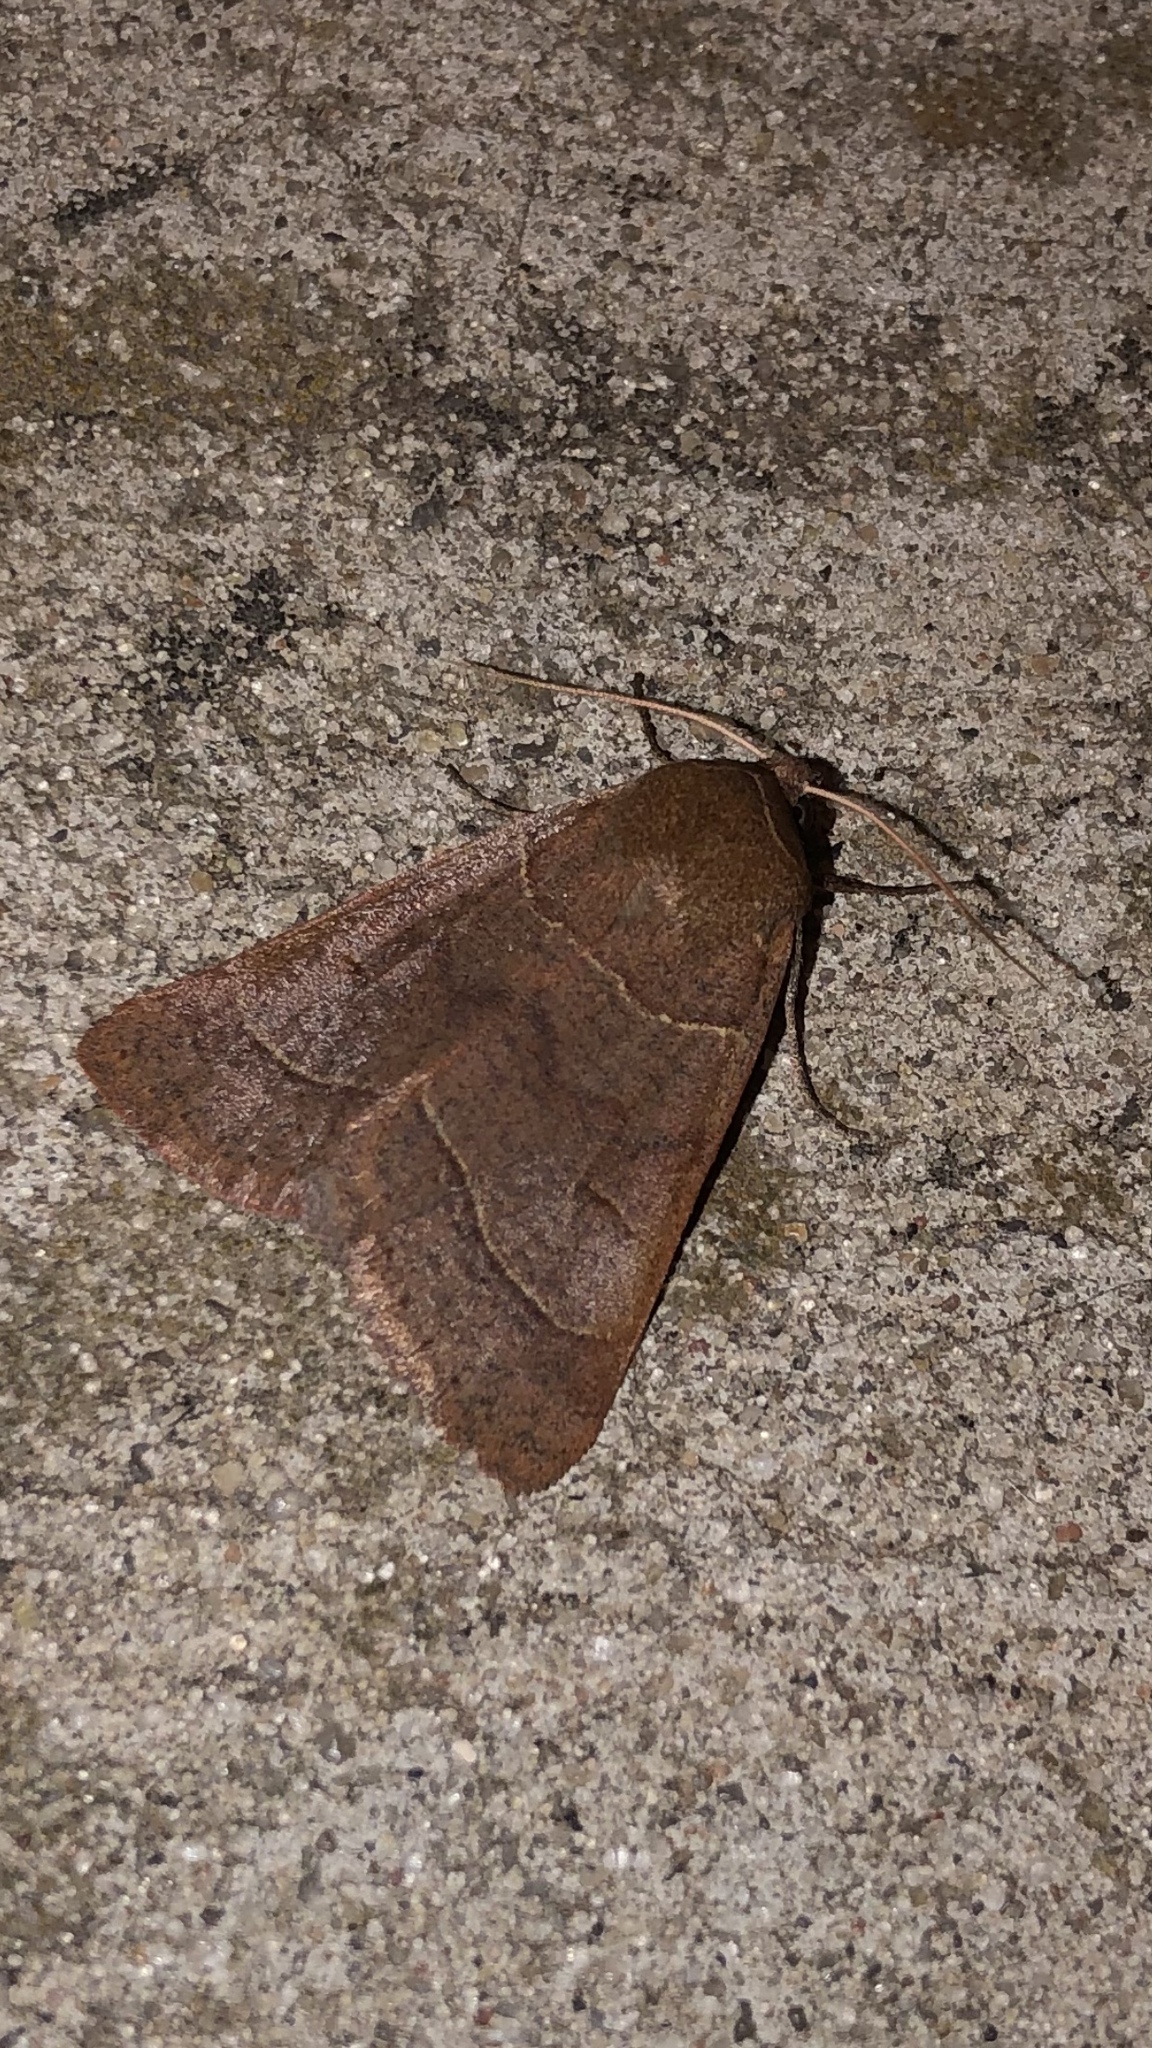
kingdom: Animalia
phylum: Arthropoda
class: Insecta
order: Lepidoptera
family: Erebidae
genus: Phoberia
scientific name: Phoberia atomaris
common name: Common oak moth
